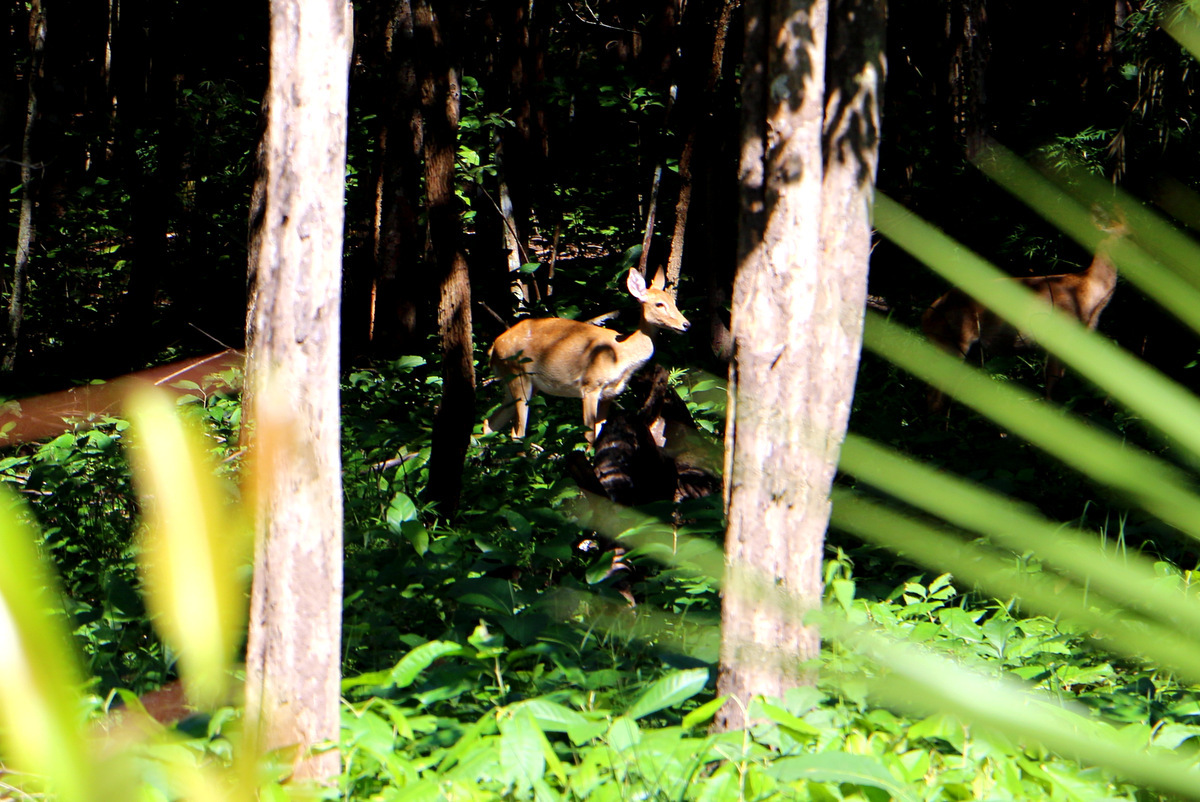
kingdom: Animalia
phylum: Chordata
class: Mammalia
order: Artiodactyla
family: Cervidae
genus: Rucervus
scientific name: Rucervus eldii
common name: Eld's deer
